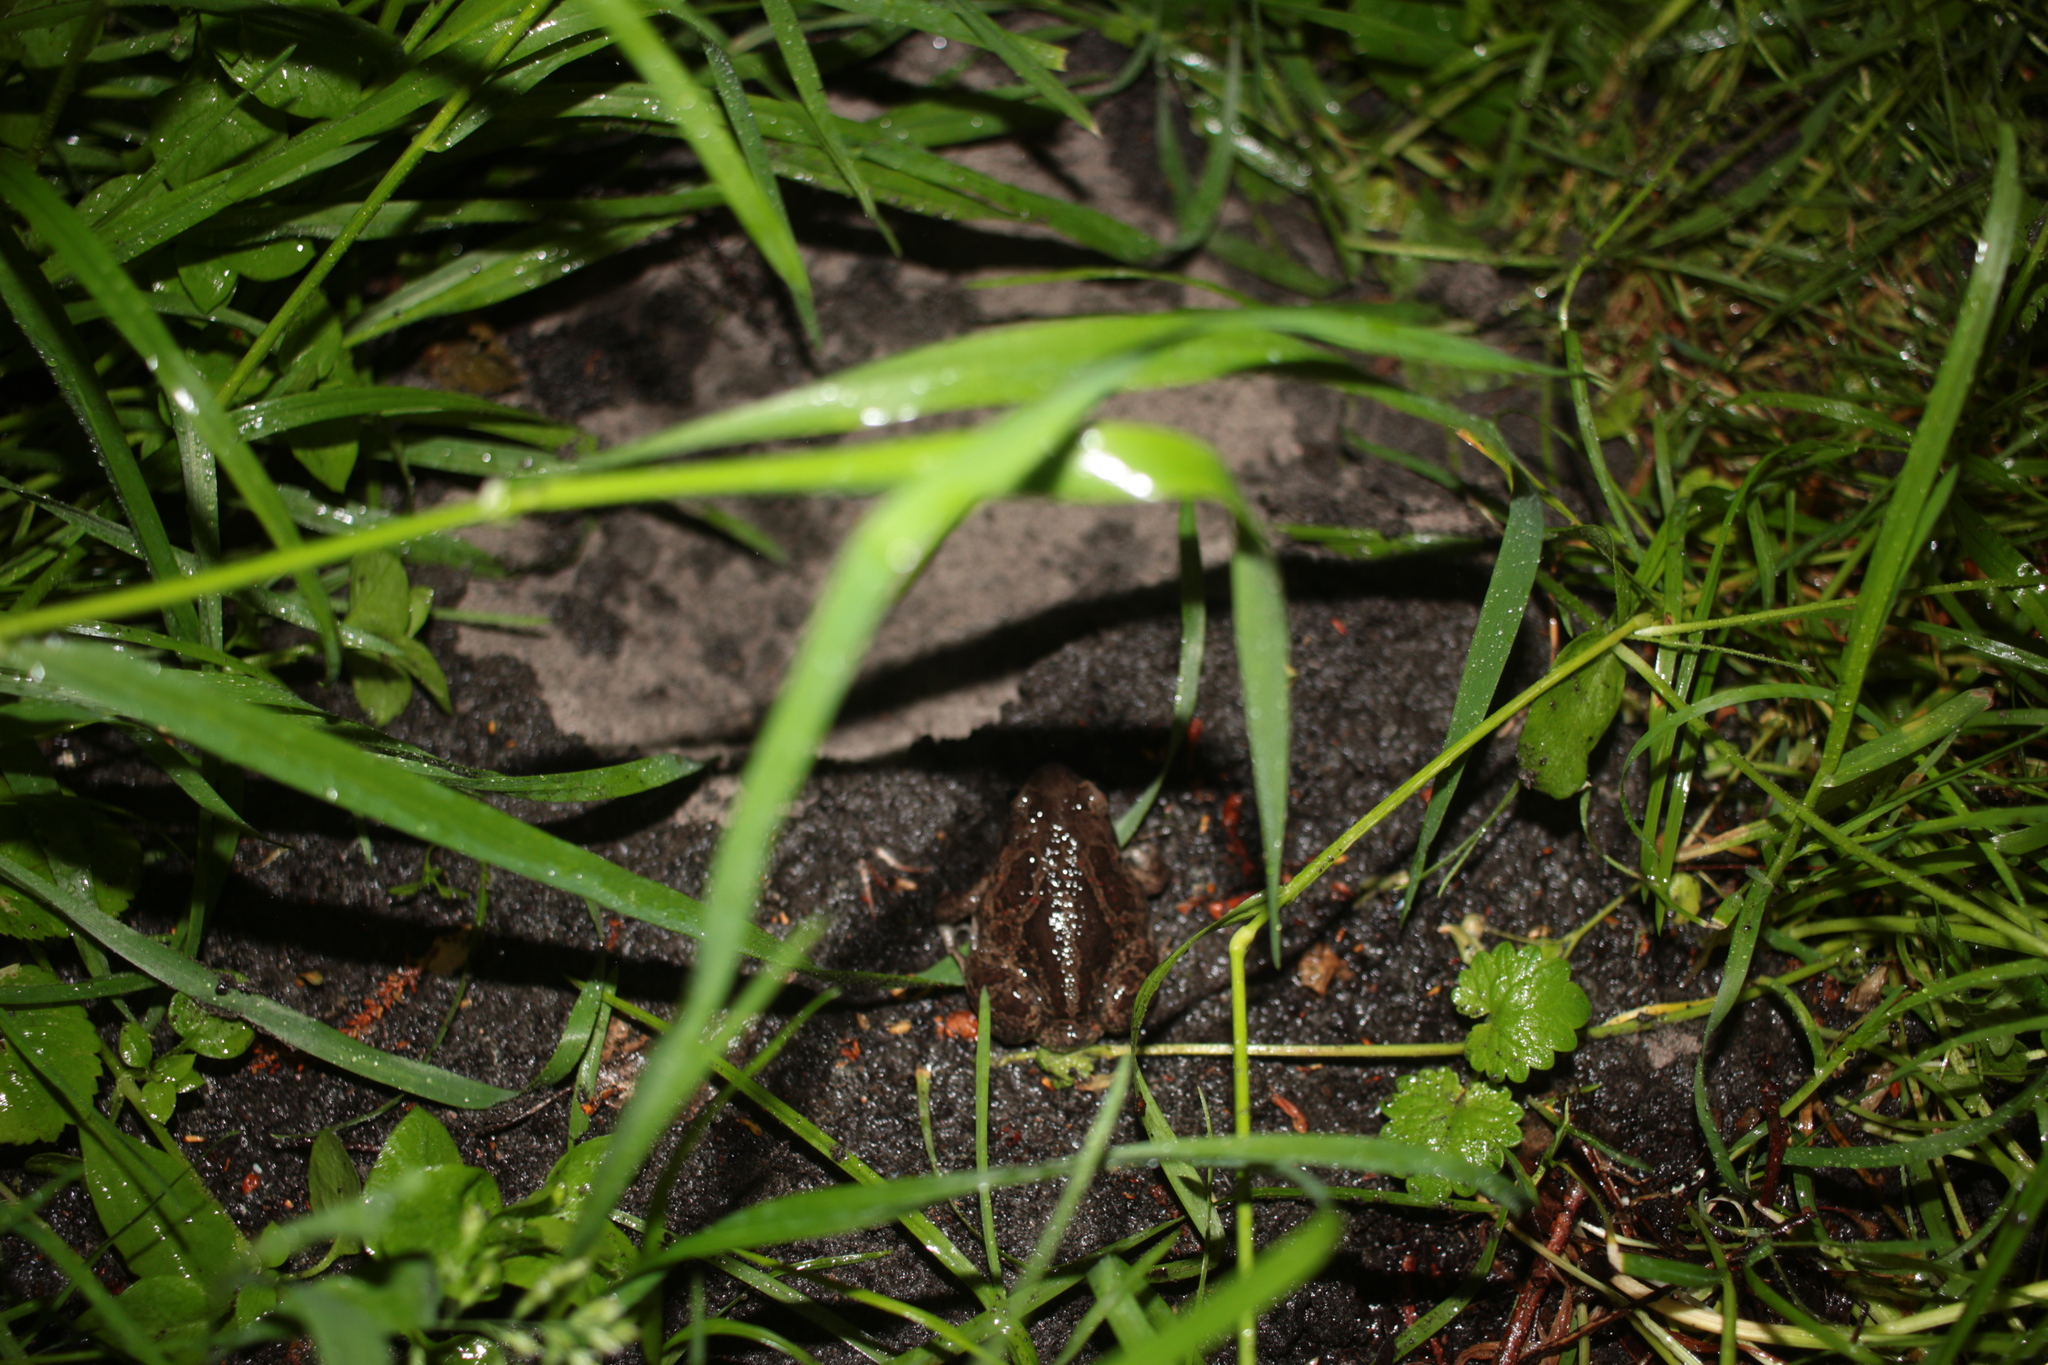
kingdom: Animalia
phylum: Chordata
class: Amphibia
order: Anura
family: Pelobatidae
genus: Pelobates
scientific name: Pelobates fuscus
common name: Common eurasian spadefoot toad
